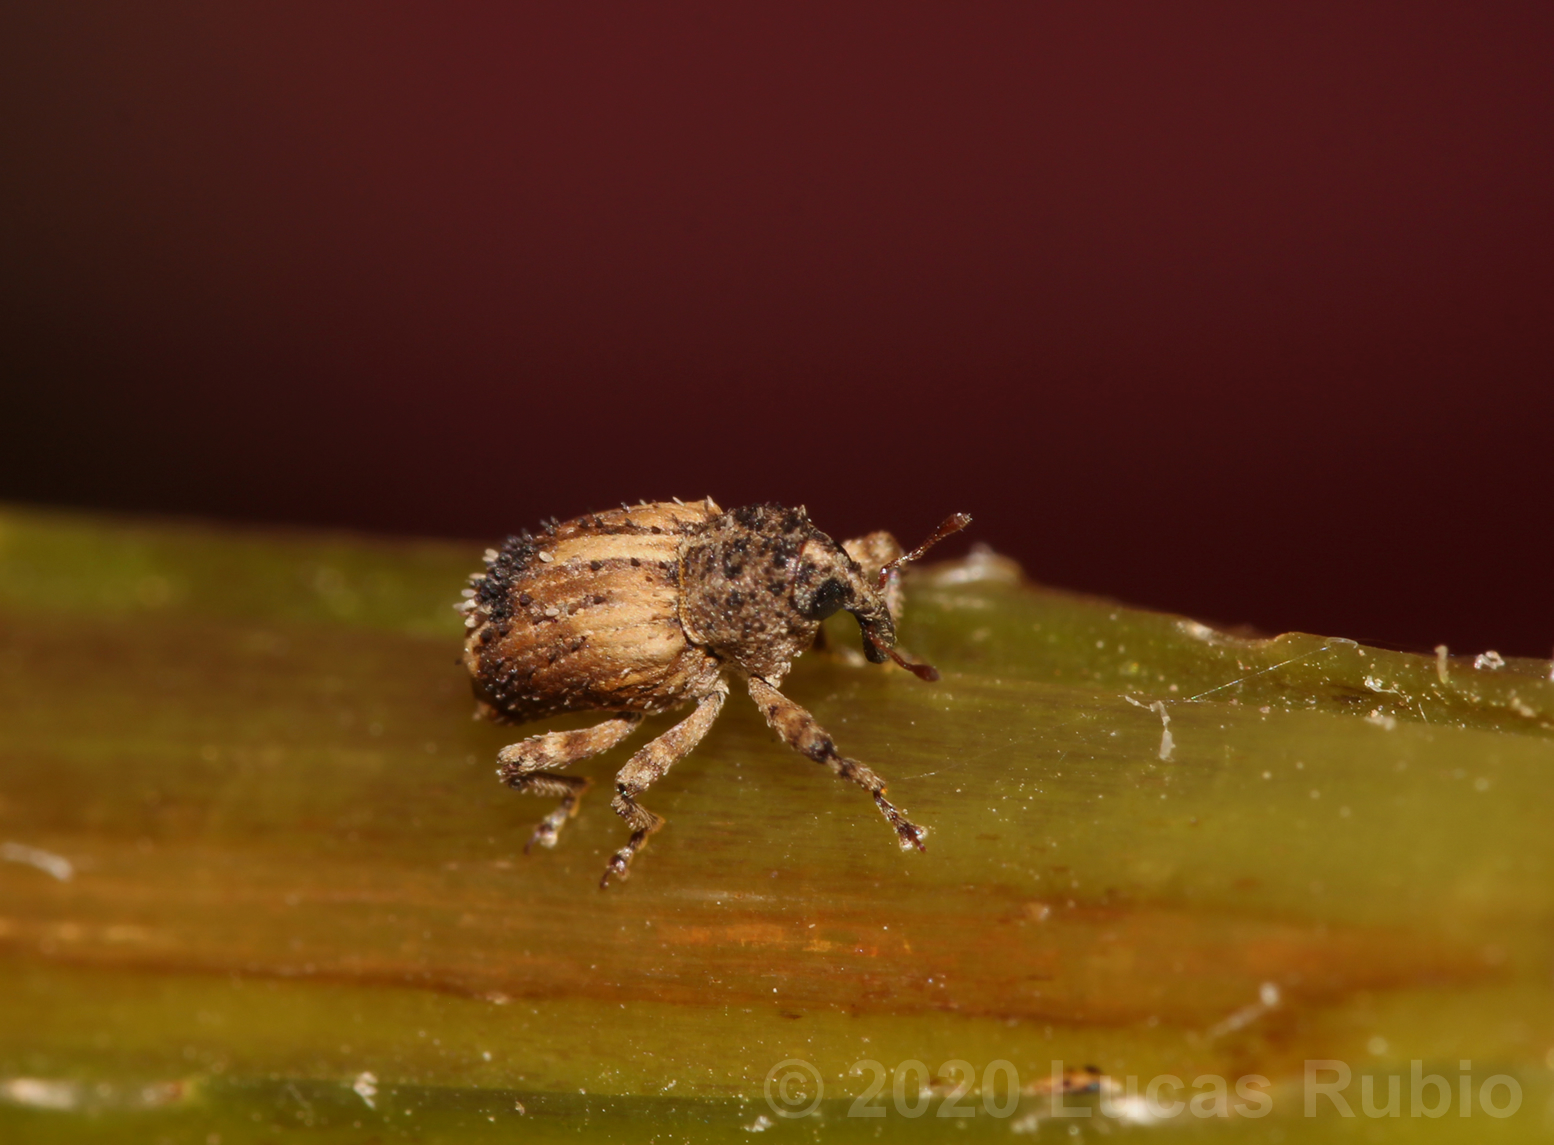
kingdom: Animalia
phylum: Arthropoda
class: Insecta
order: Coleoptera
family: Curculionidae
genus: Faustinus
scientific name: Faustinus cubae
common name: Weevil
